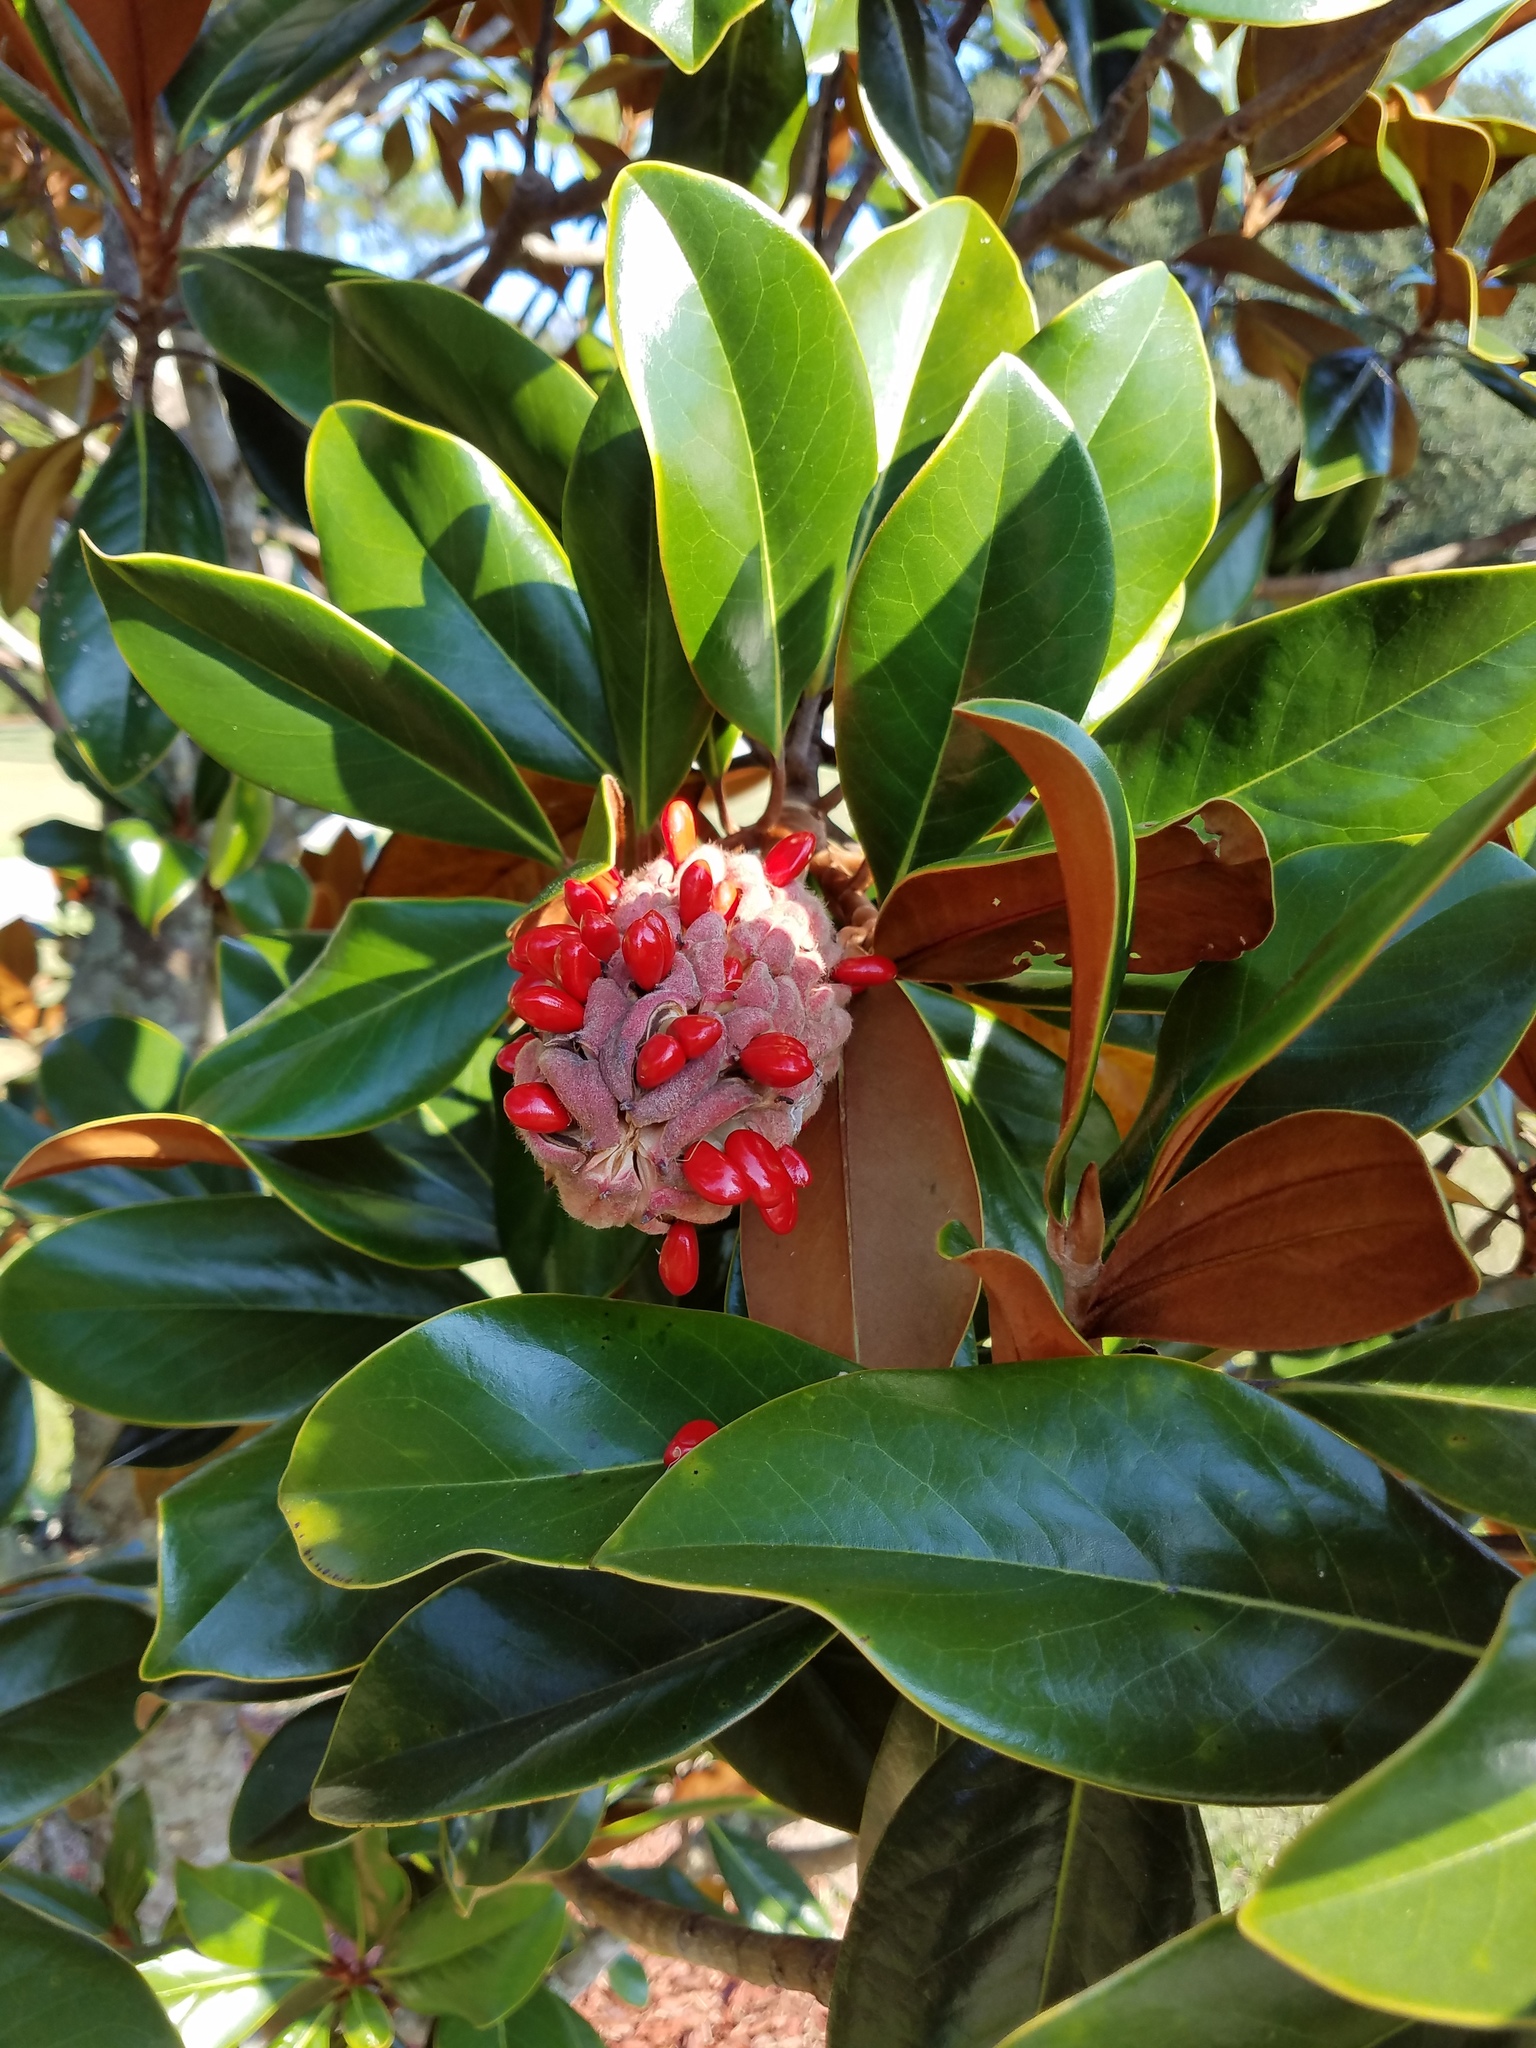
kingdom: Plantae
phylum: Tracheophyta
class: Magnoliopsida
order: Magnoliales
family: Magnoliaceae
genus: Magnolia
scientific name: Magnolia grandiflora
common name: Southern magnolia
